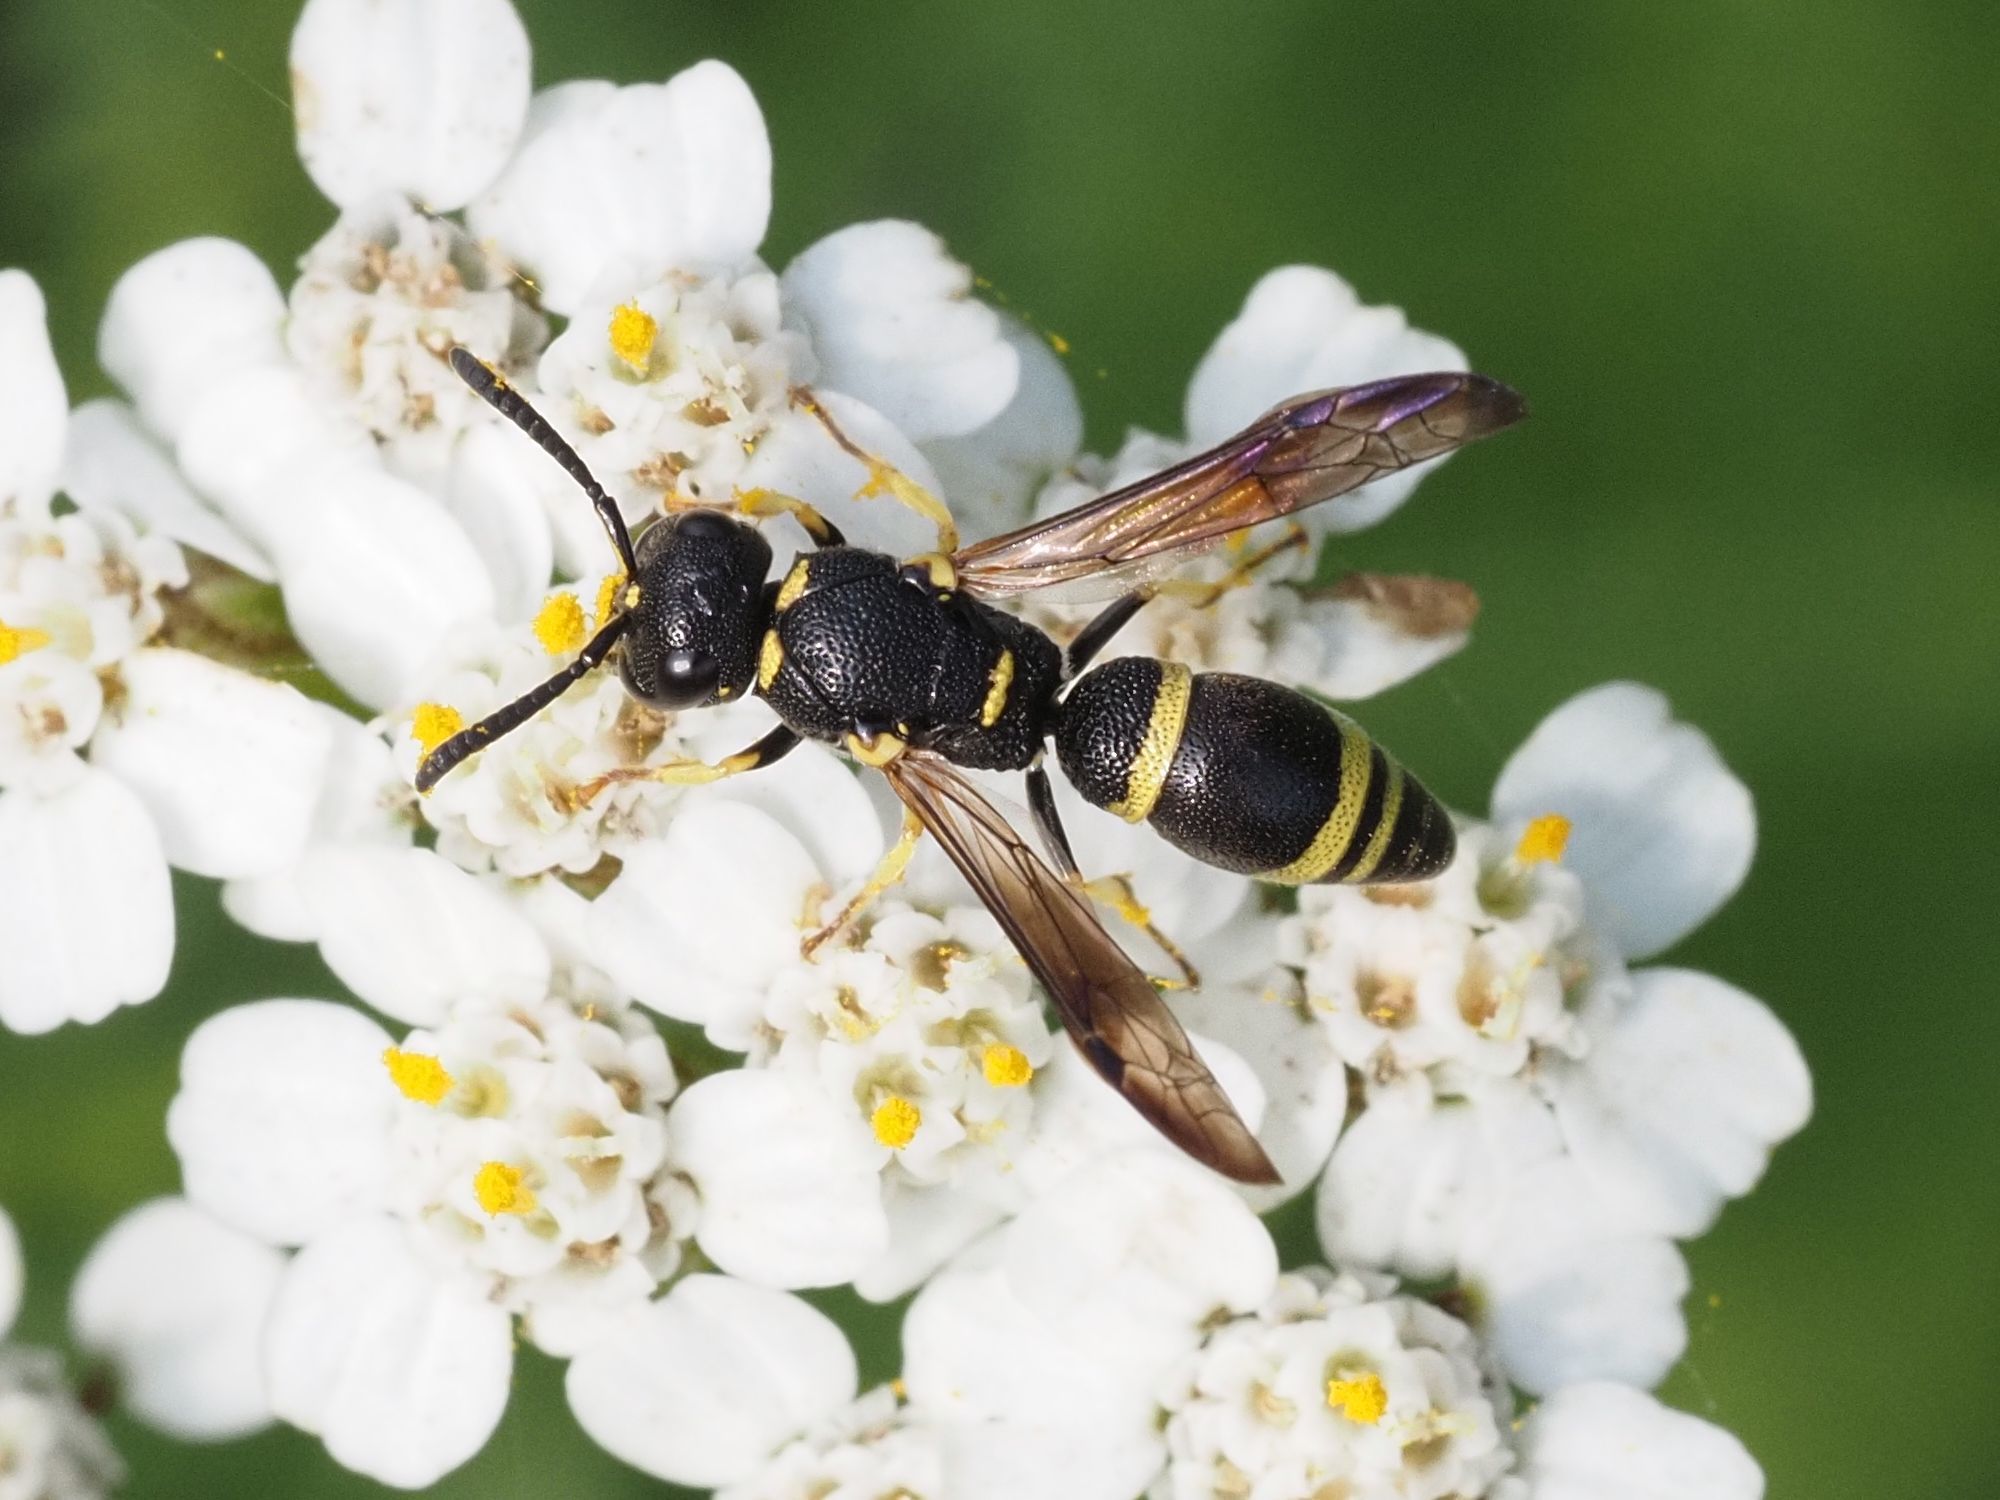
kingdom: Animalia
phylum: Arthropoda
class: Insecta
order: Hymenoptera
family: Eumenidae
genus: Rhynchalastor
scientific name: Rhynchalastor chevrieranus
